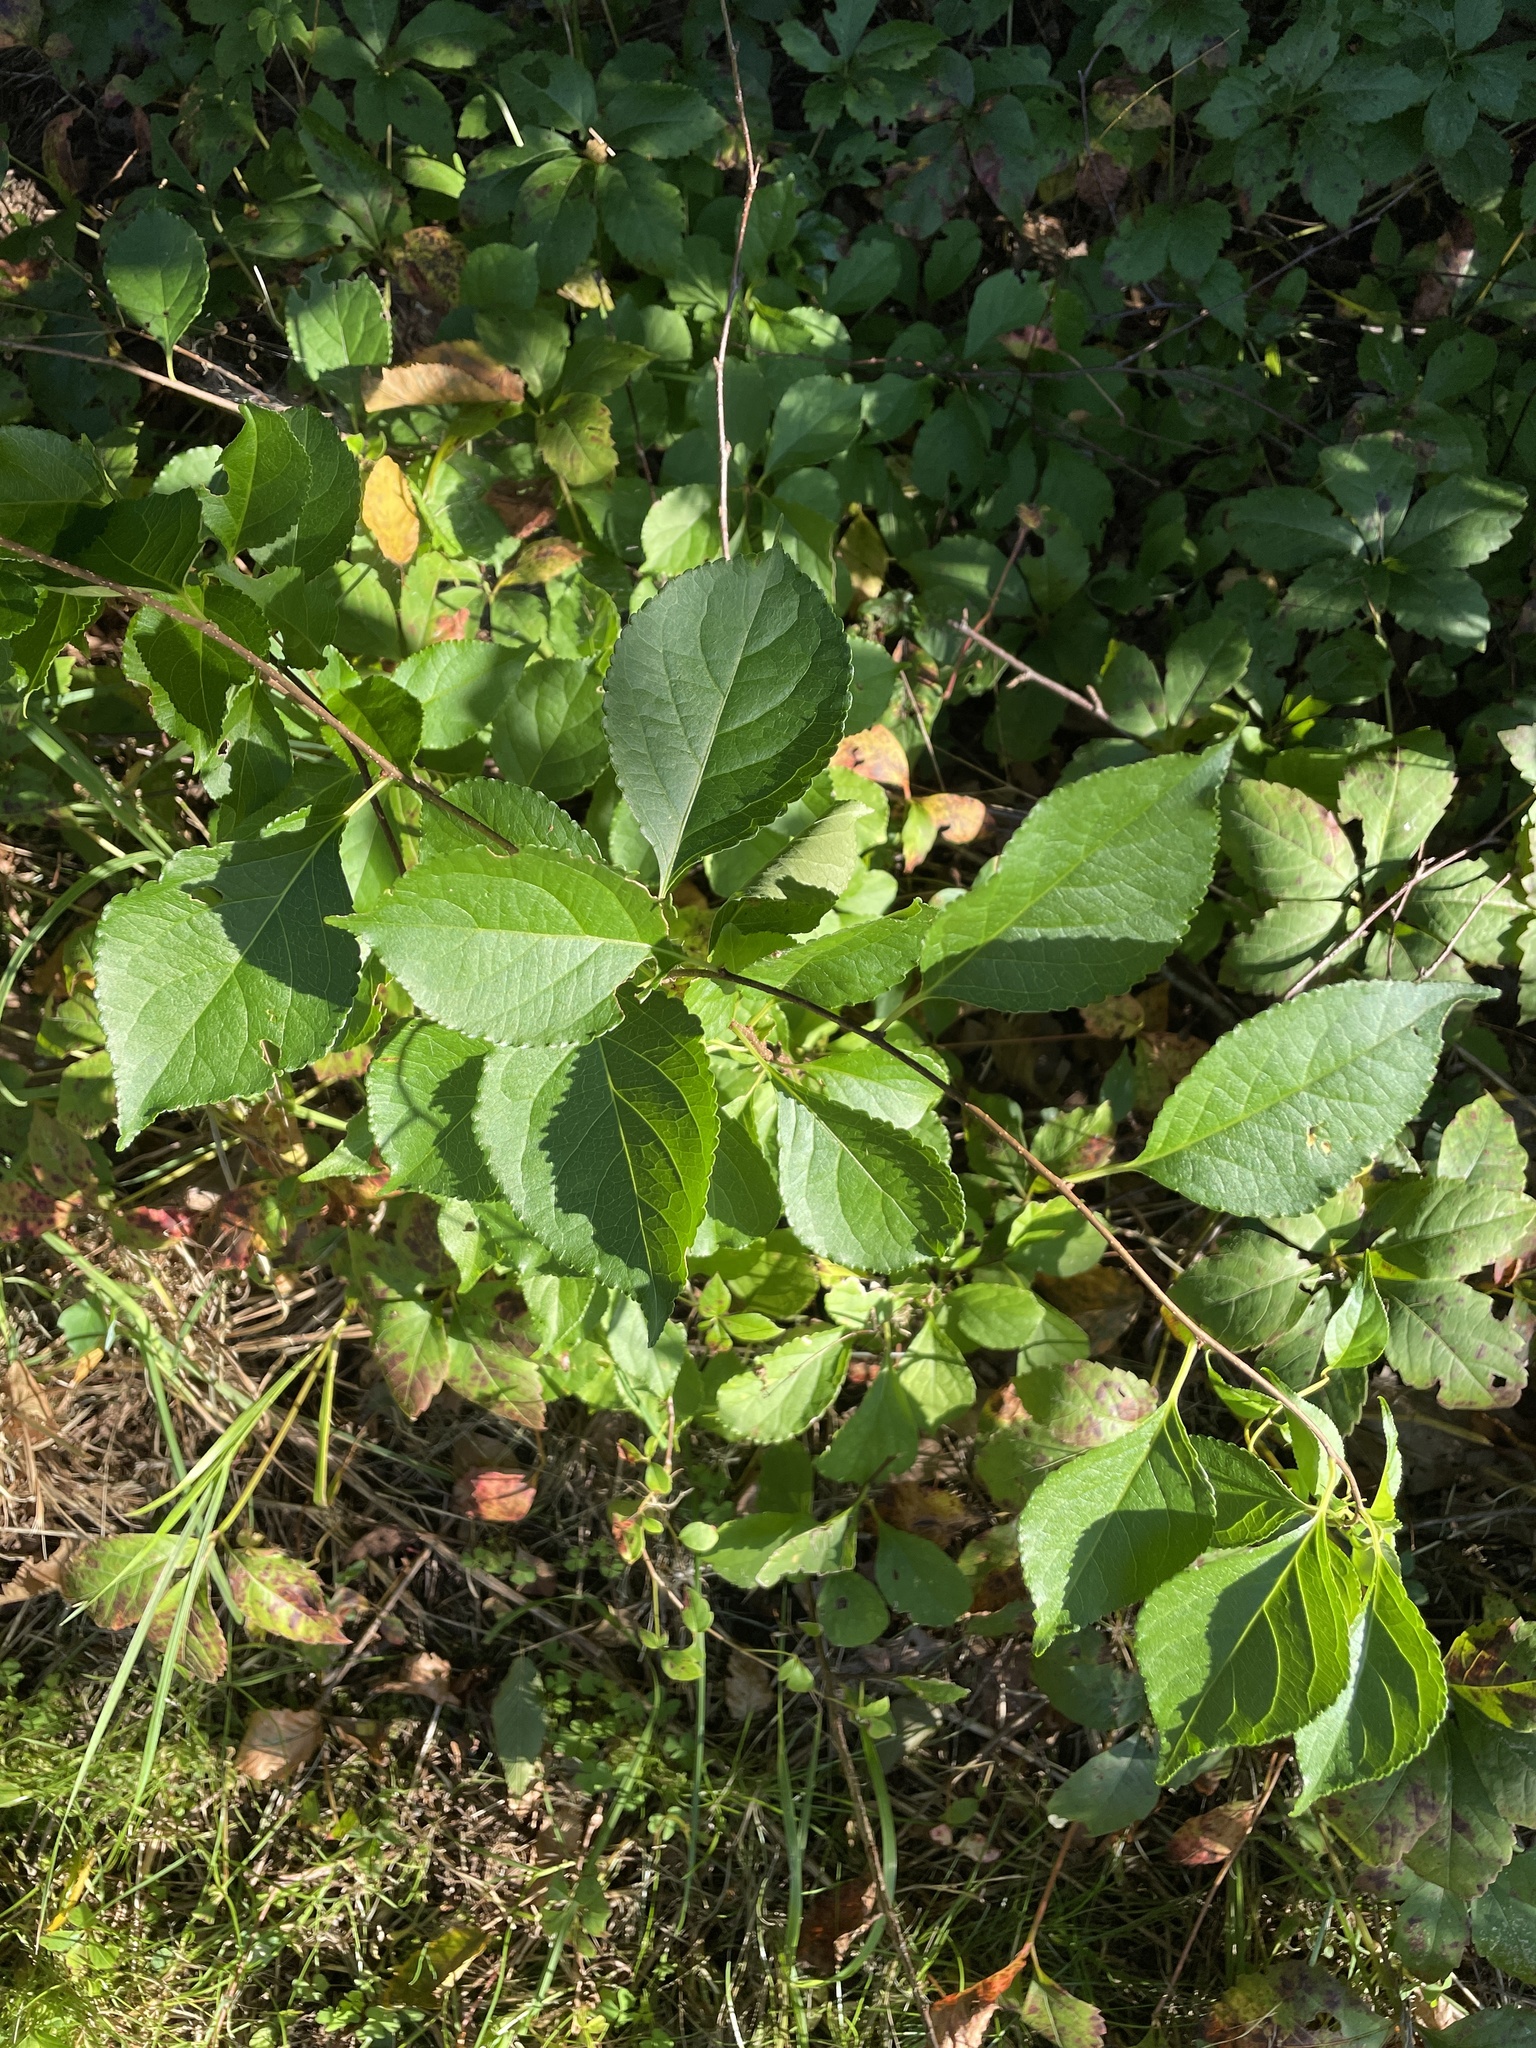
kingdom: Plantae
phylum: Tracheophyta
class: Magnoliopsida
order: Celastrales
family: Celastraceae
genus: Celastrus
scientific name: Celastrus orbiculatus
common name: Oriental bittersweet
